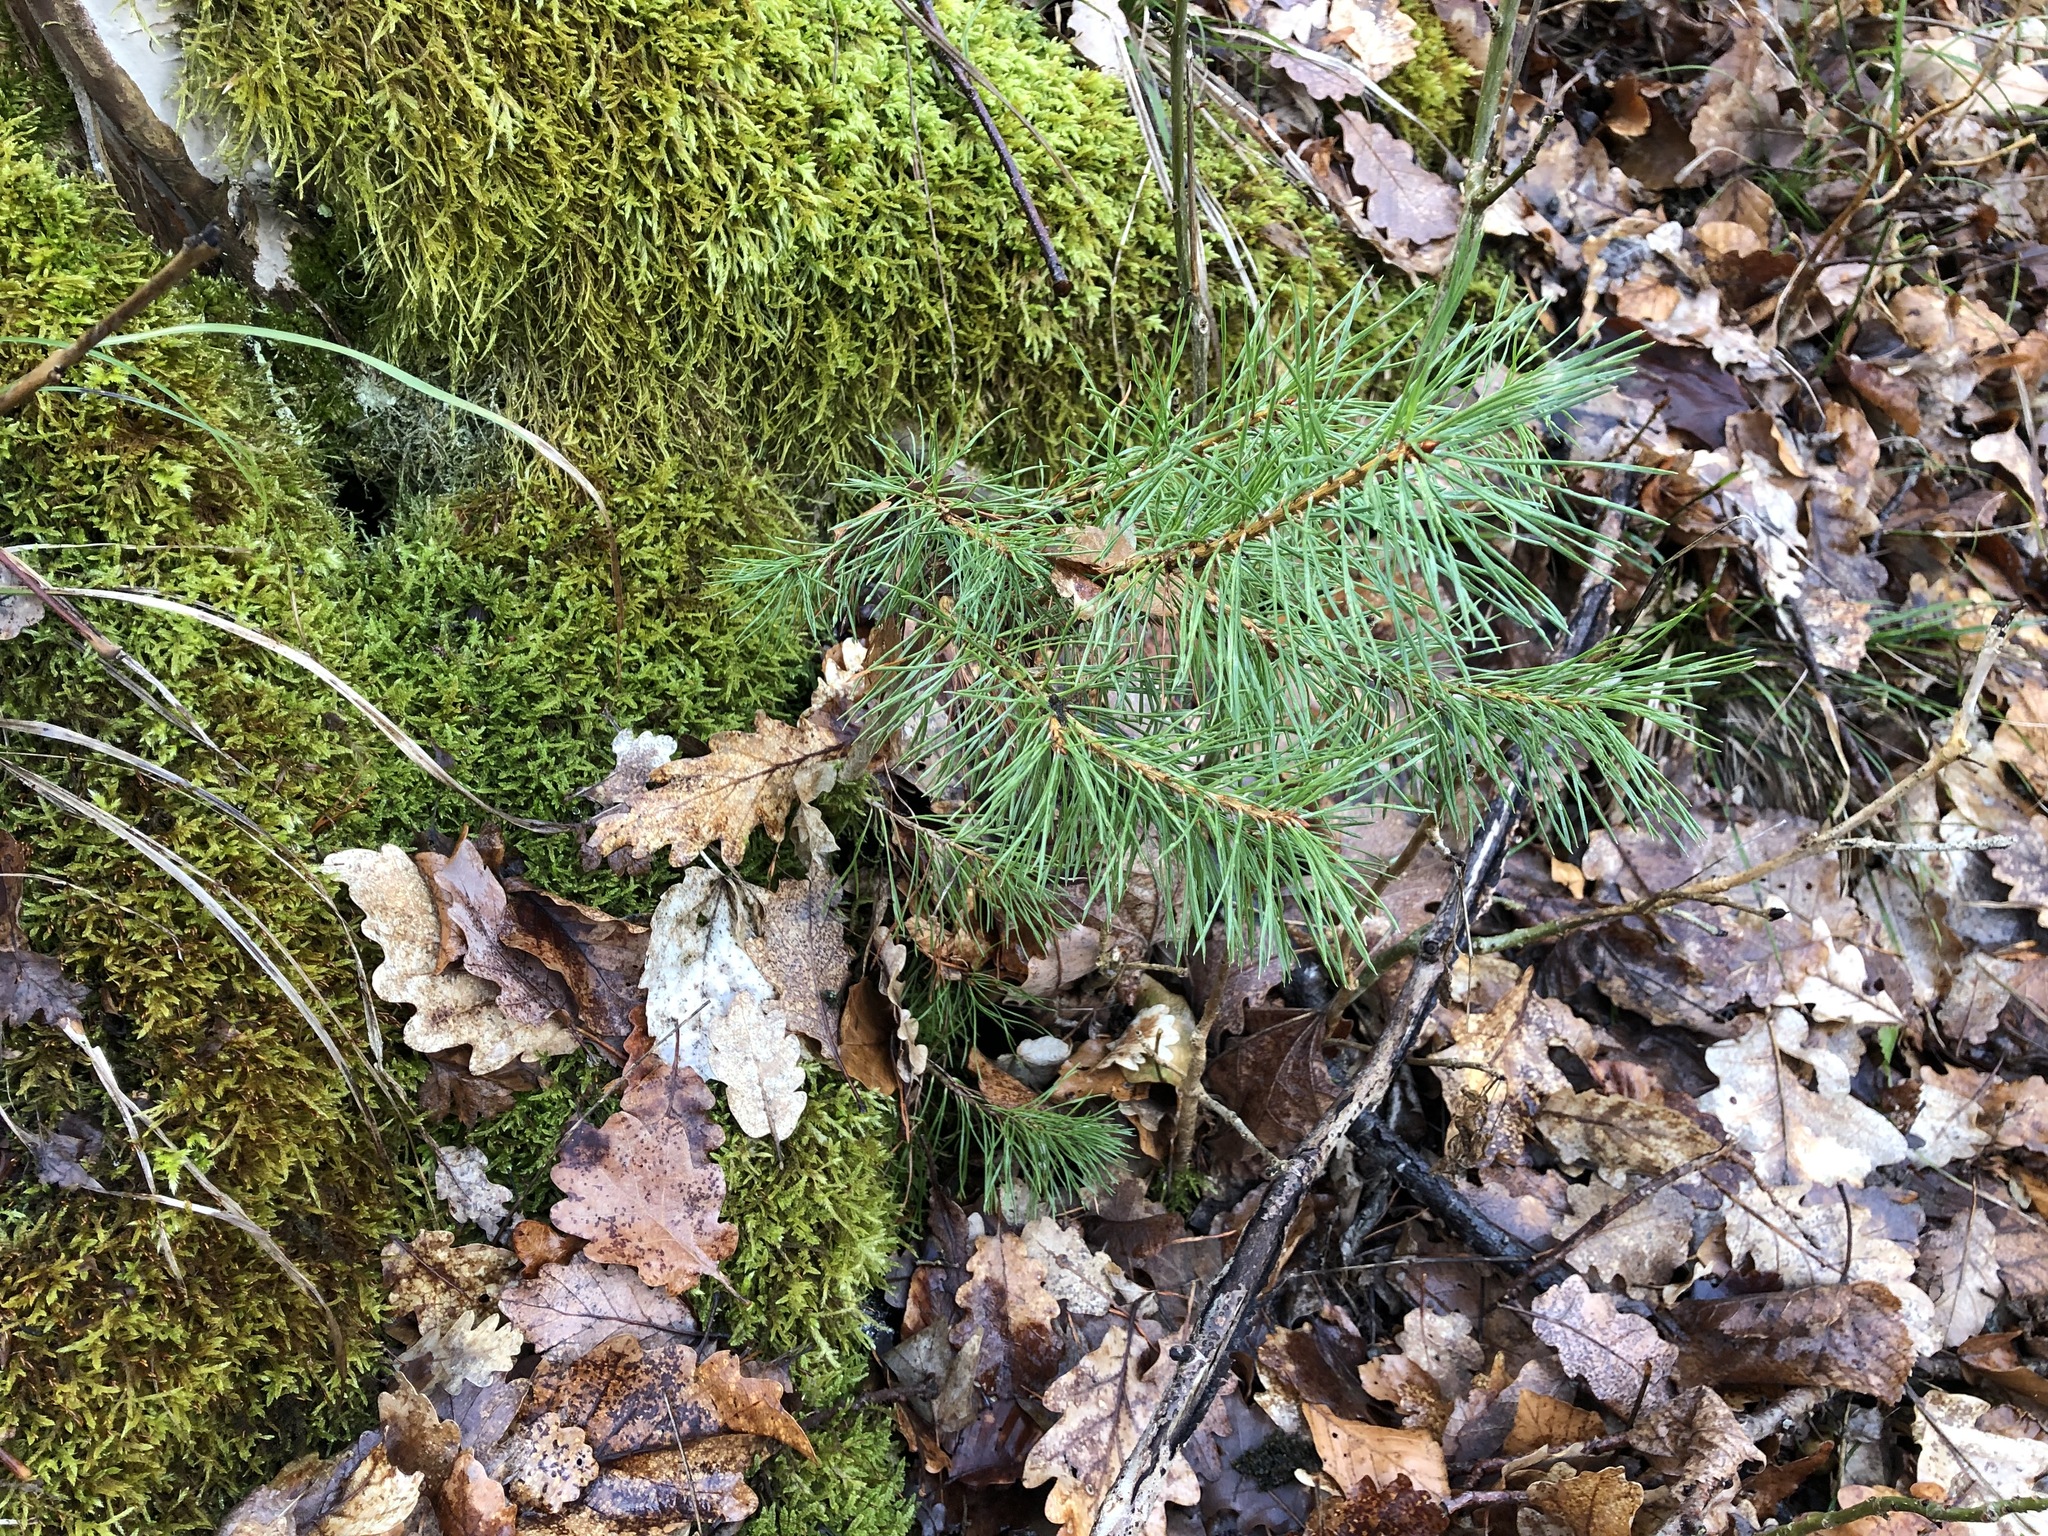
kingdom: Plantae
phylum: Tracheophyta
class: Pinopsida
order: Pinales
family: Pinaceae
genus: Pinus
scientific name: Pinus sylvestris
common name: Scots pine
